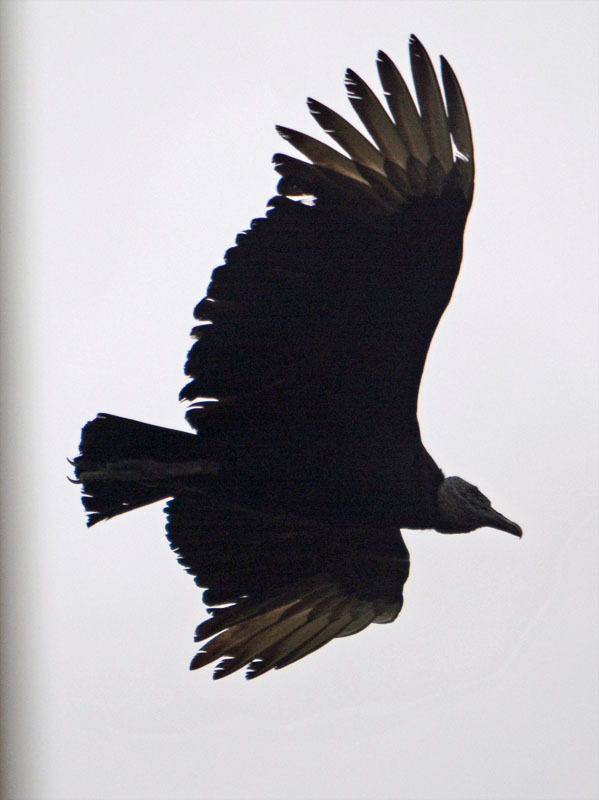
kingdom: Animalia
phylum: Chordata
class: Aves
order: Accipitriformes
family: Cathartidae
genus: Coragyps
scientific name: Coragyps atratus
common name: Black vulture
